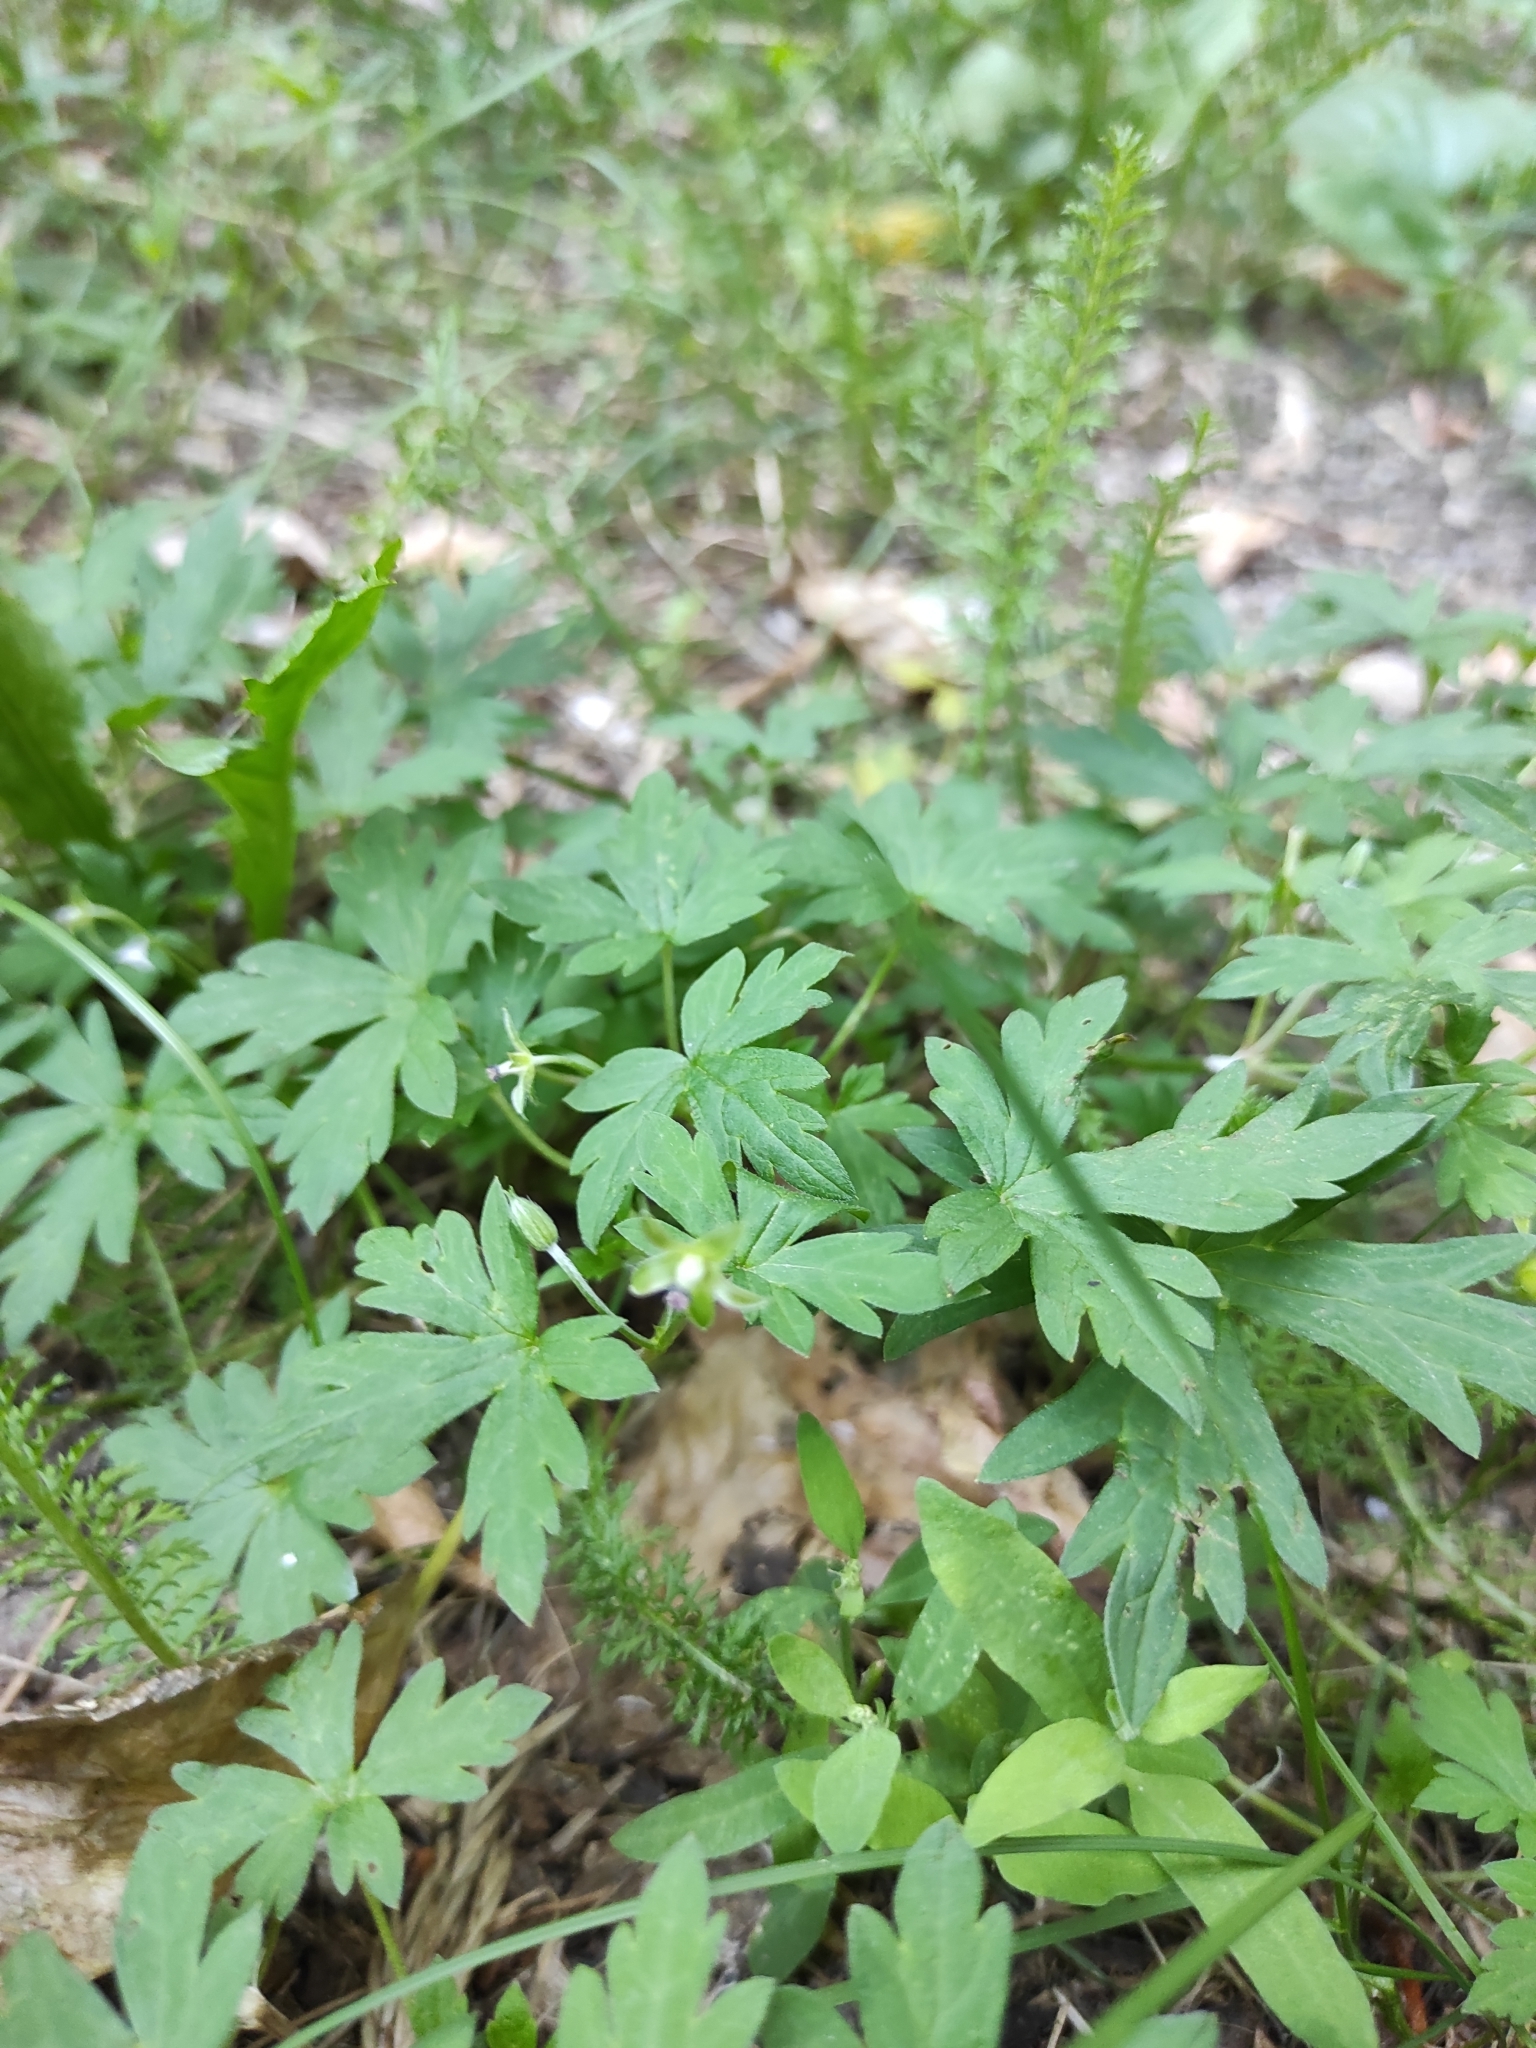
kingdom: Plantae
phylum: Tracheophyta
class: Magnoliopsida
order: Geraniales
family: Geraniaceae
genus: Geranium
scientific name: Geranium sibiricum
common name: Siberian crane's-bill
